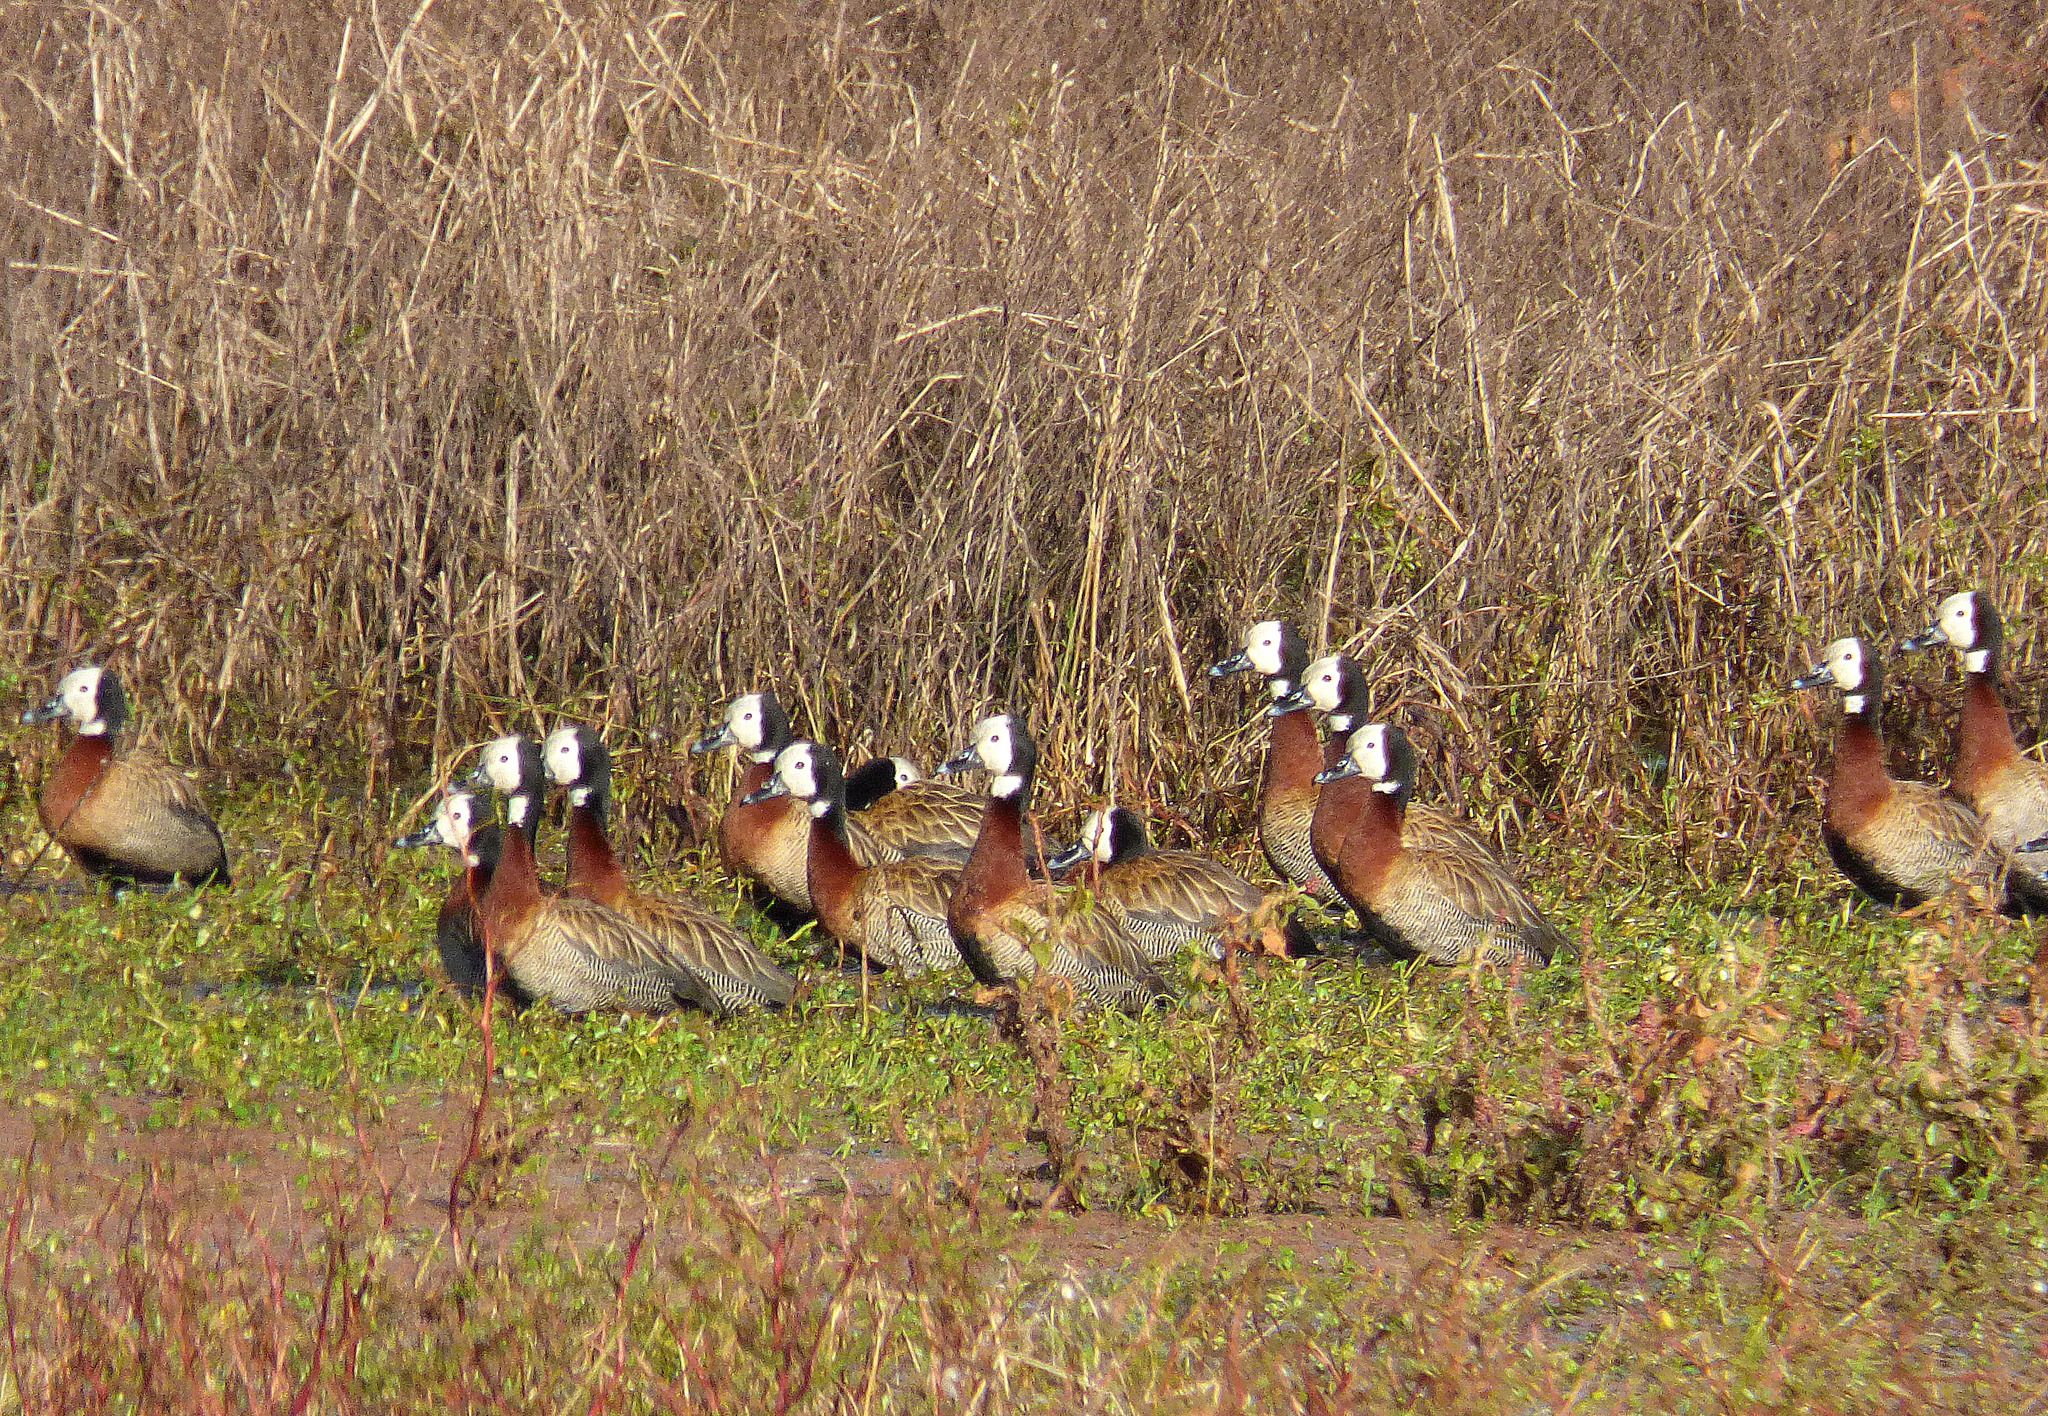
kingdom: Animalia
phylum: Chordata
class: Aves
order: Anseriformes
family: Anatidae
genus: Dendrocygna
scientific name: Dendrocygna viduata
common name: White-faced whistling duck
